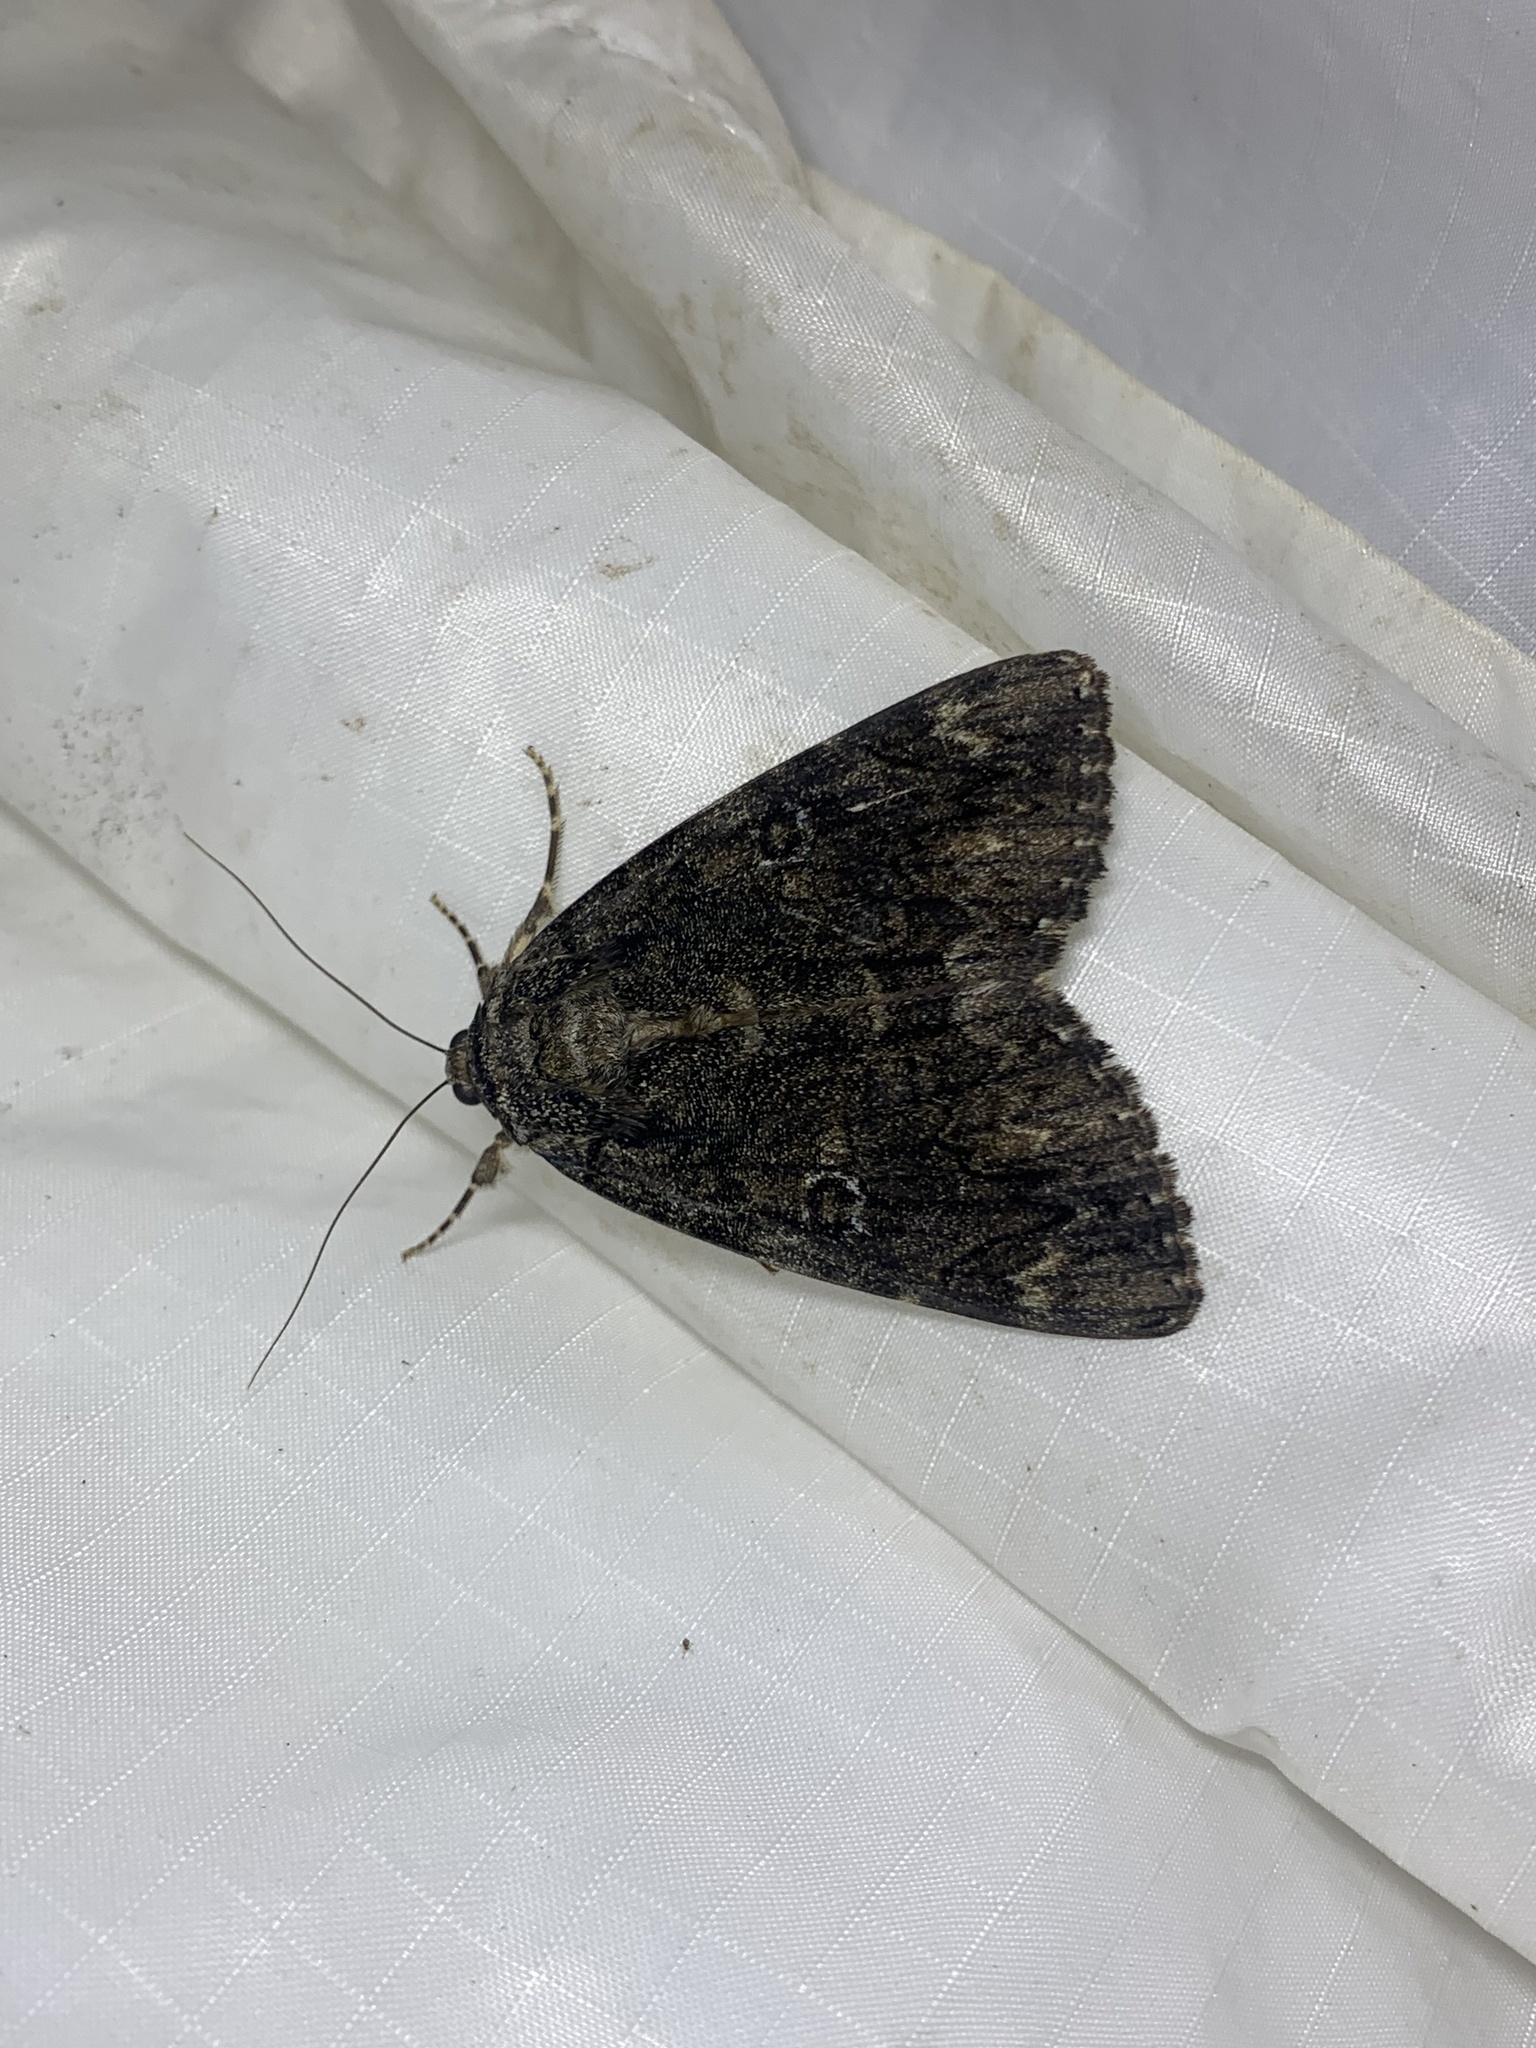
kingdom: Animalia
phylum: Arthropoda
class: Insecta
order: Lepidoptera
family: Erebidae
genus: Catocala
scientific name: Catocala ilia
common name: Ilia underwing
